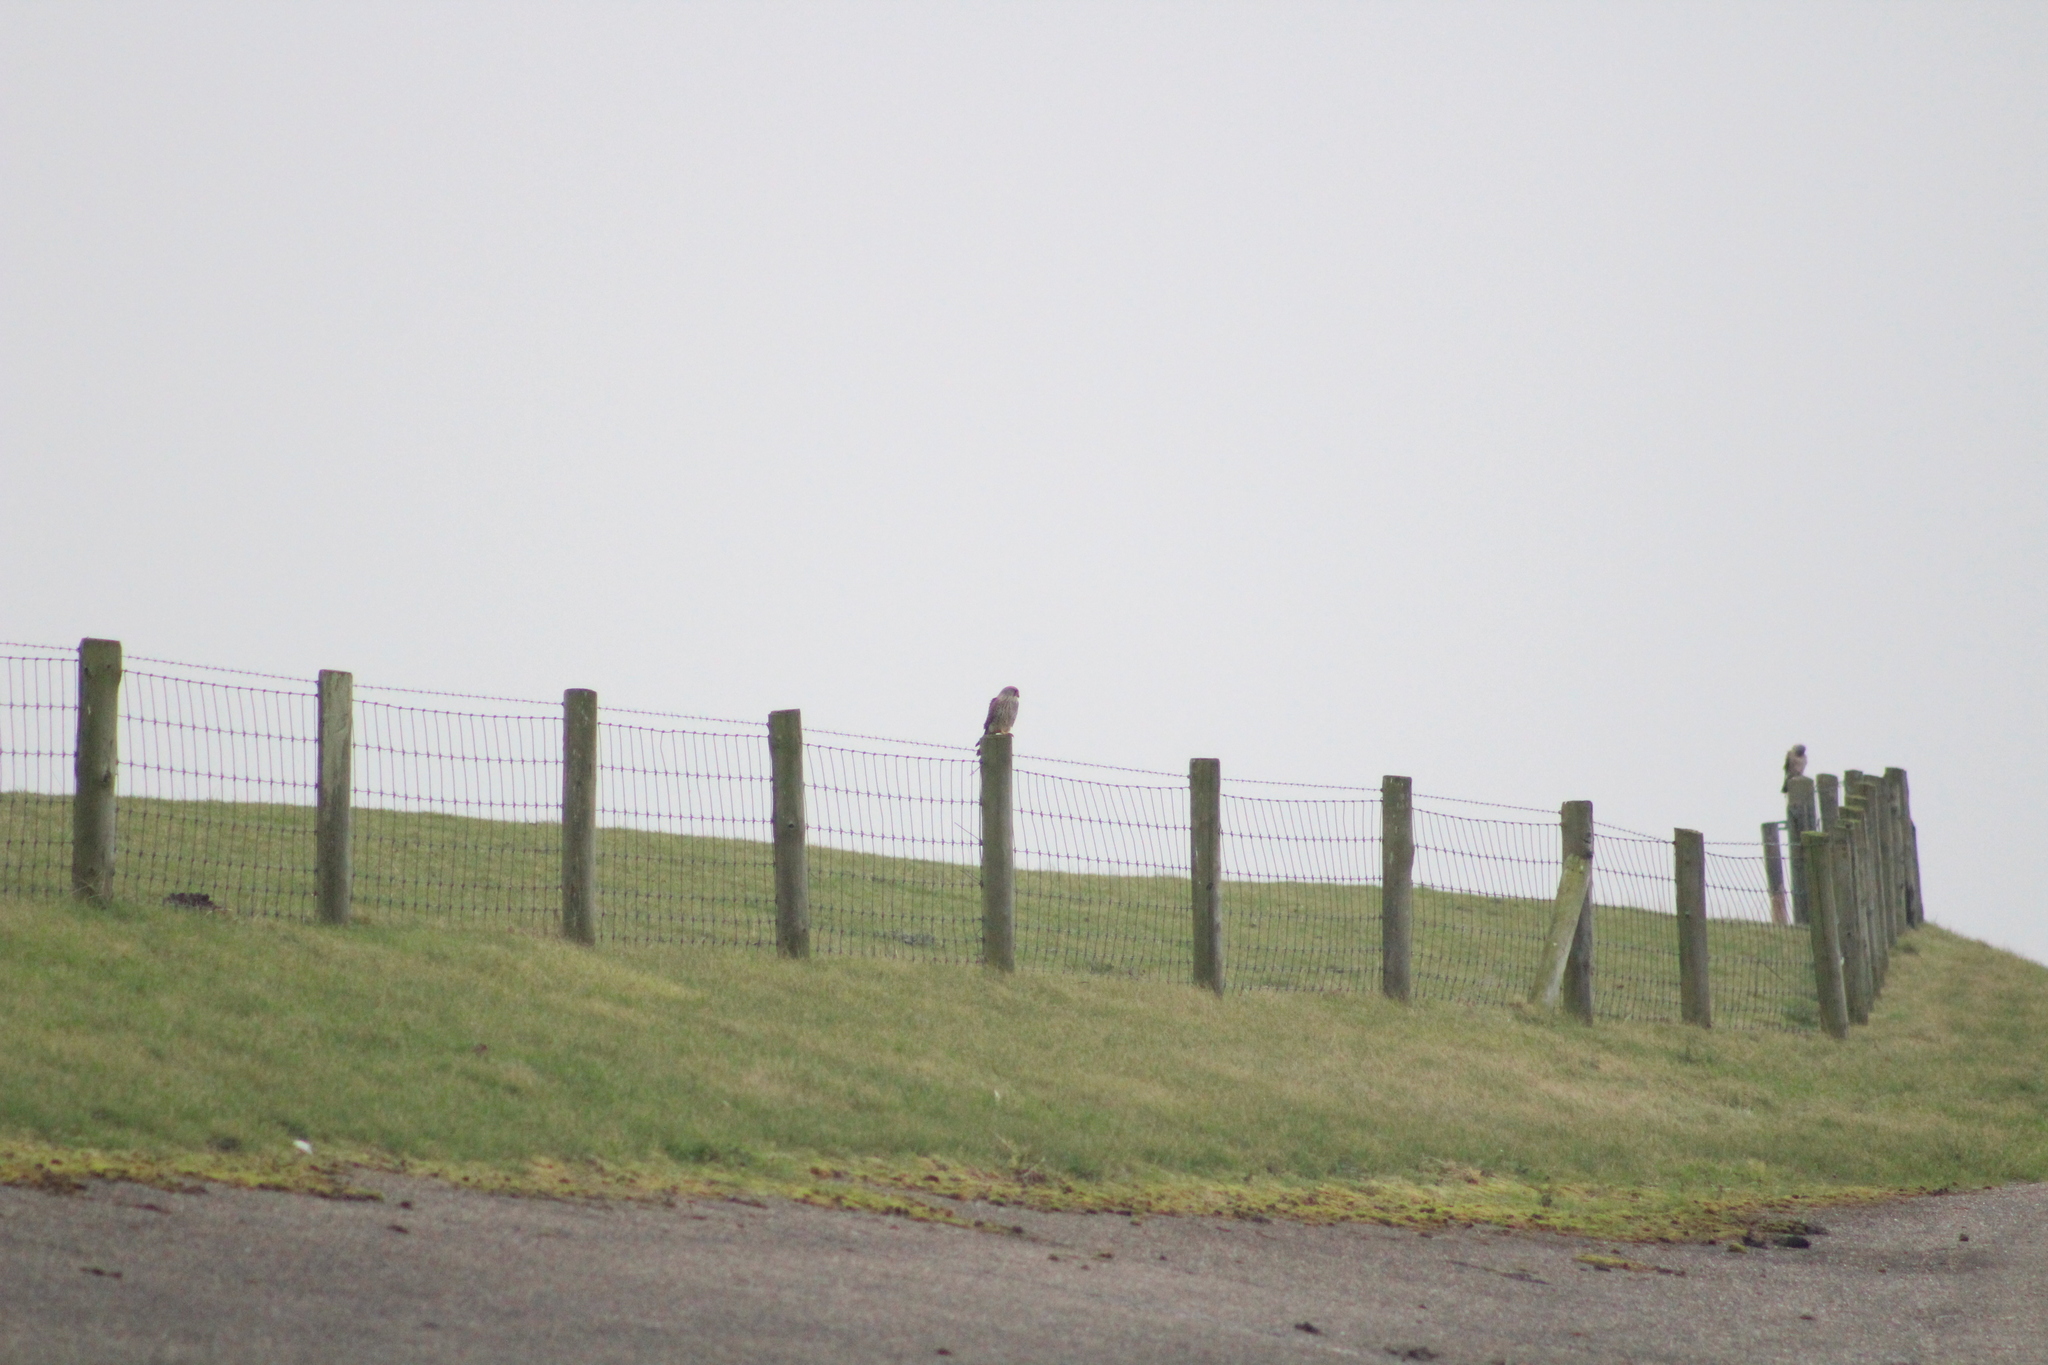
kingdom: Animalia
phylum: Chordata
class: Aves
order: Falconiformes
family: Falconidae
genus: Falco
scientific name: Falco tinnunculus
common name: Common kestrel
